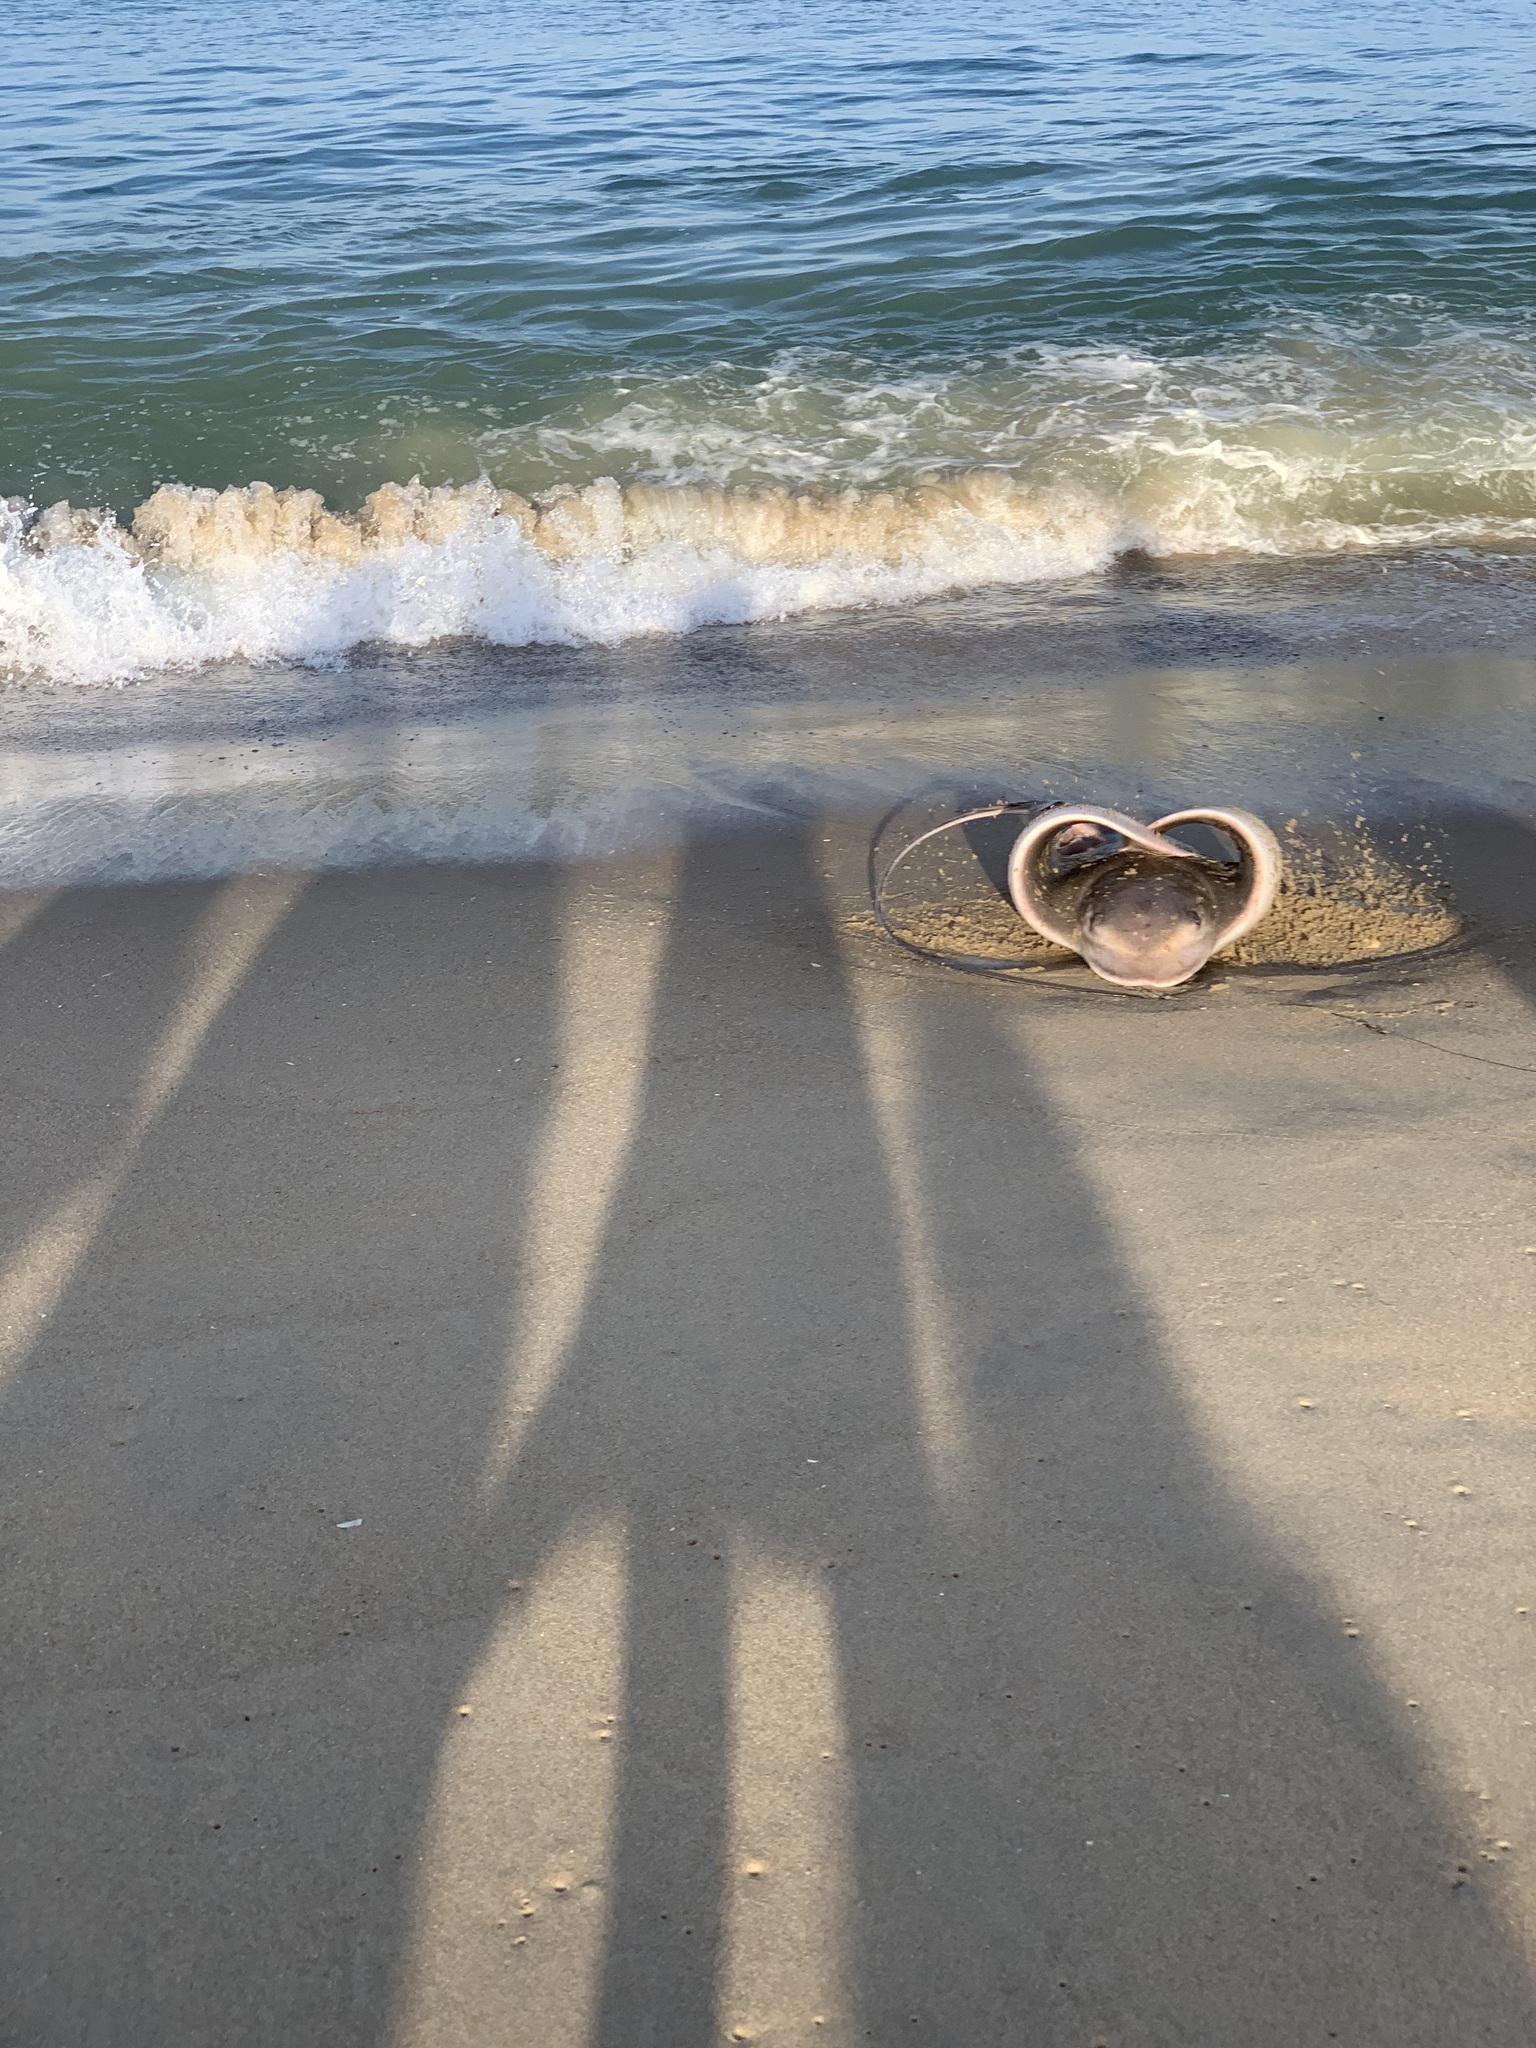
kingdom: Animalia
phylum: Chordata
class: Elasmobranchii
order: Myliobatiformes
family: Myliobatidae
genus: Myliobatis
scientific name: Myliobatis freminvillei
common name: Bullnose ray
